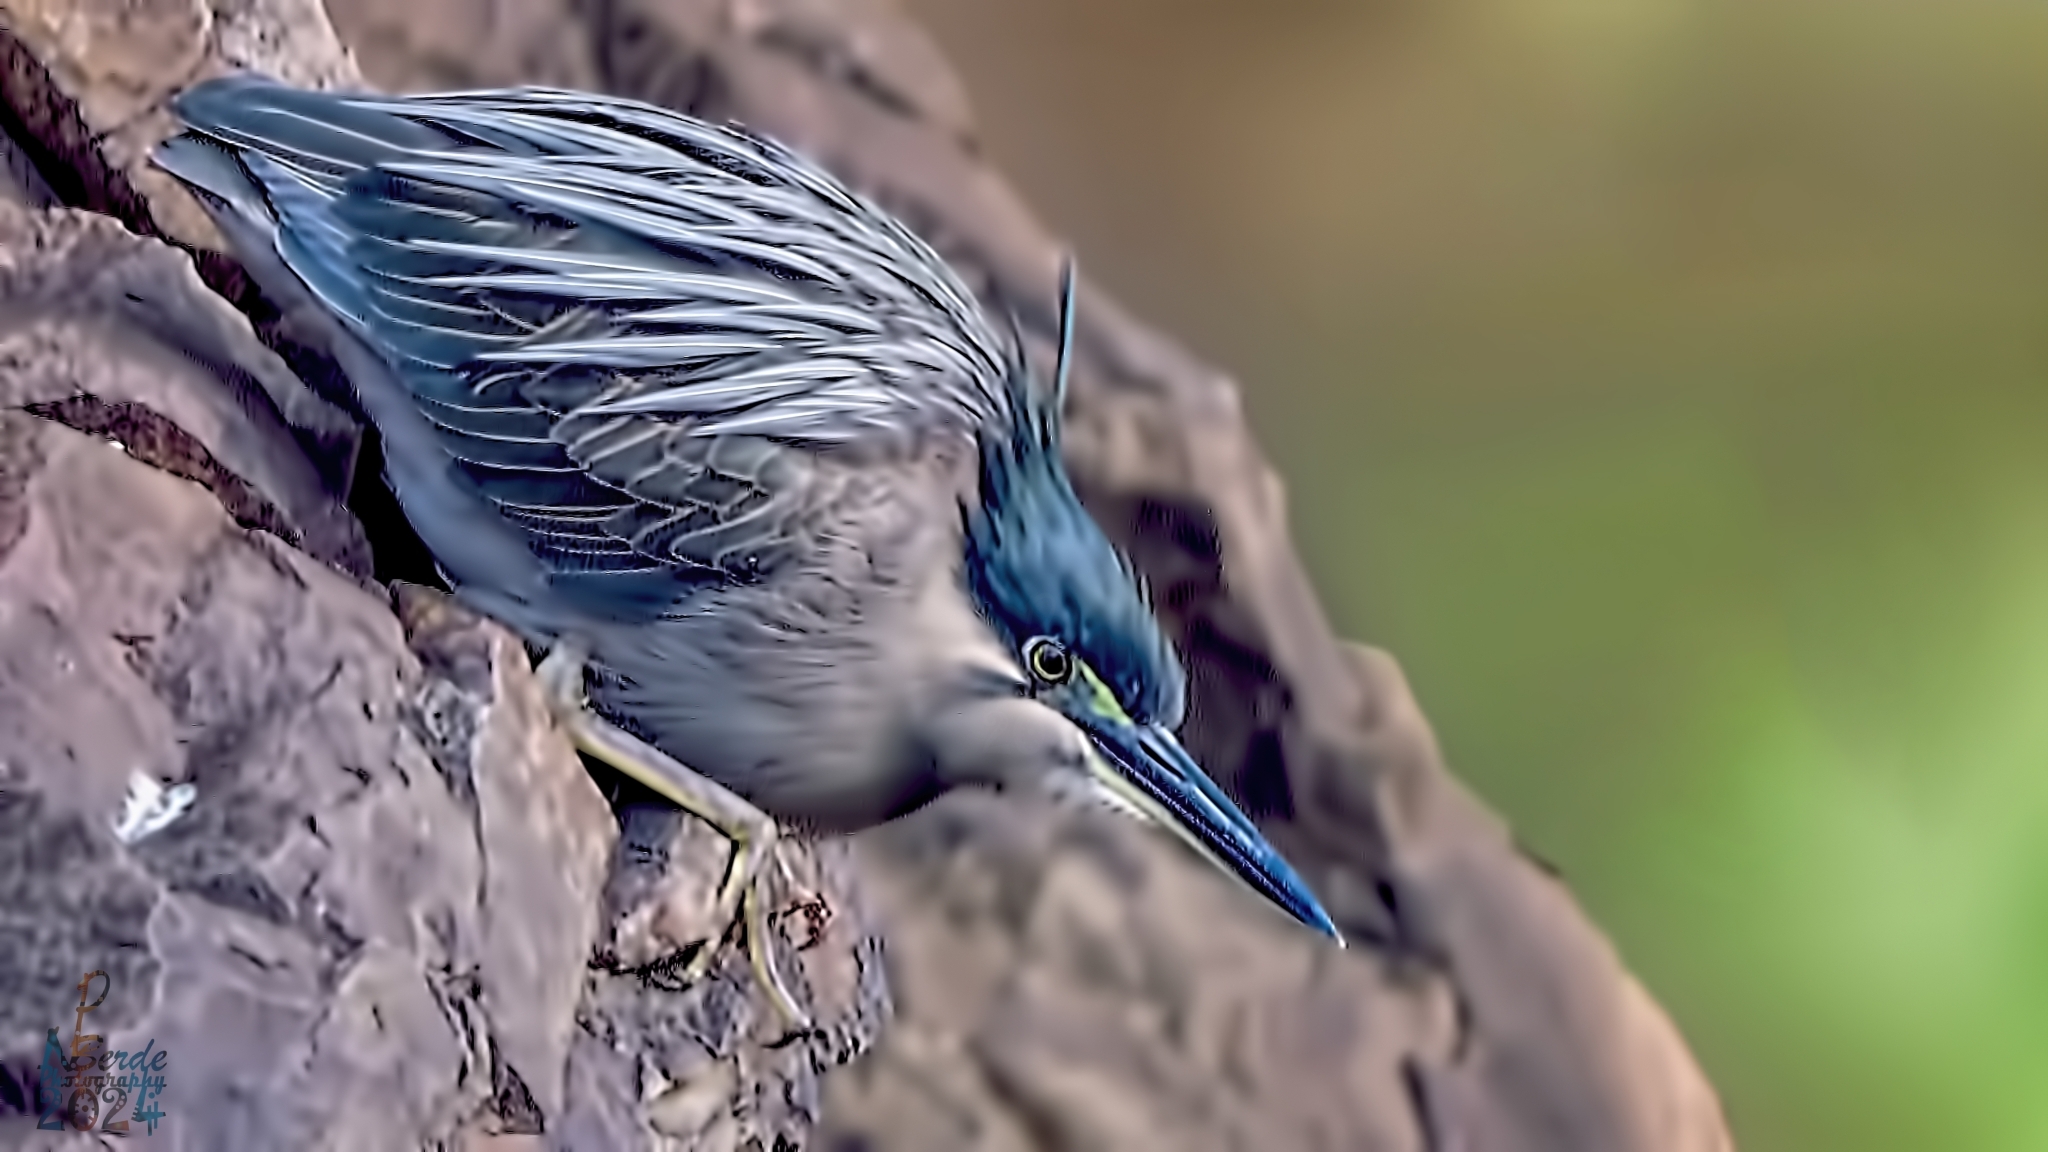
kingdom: Animalia
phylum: Chordata
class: Aves
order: Pelecaniformes
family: Ardeidae
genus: Butorides
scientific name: Butorides striata
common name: Striated heron
